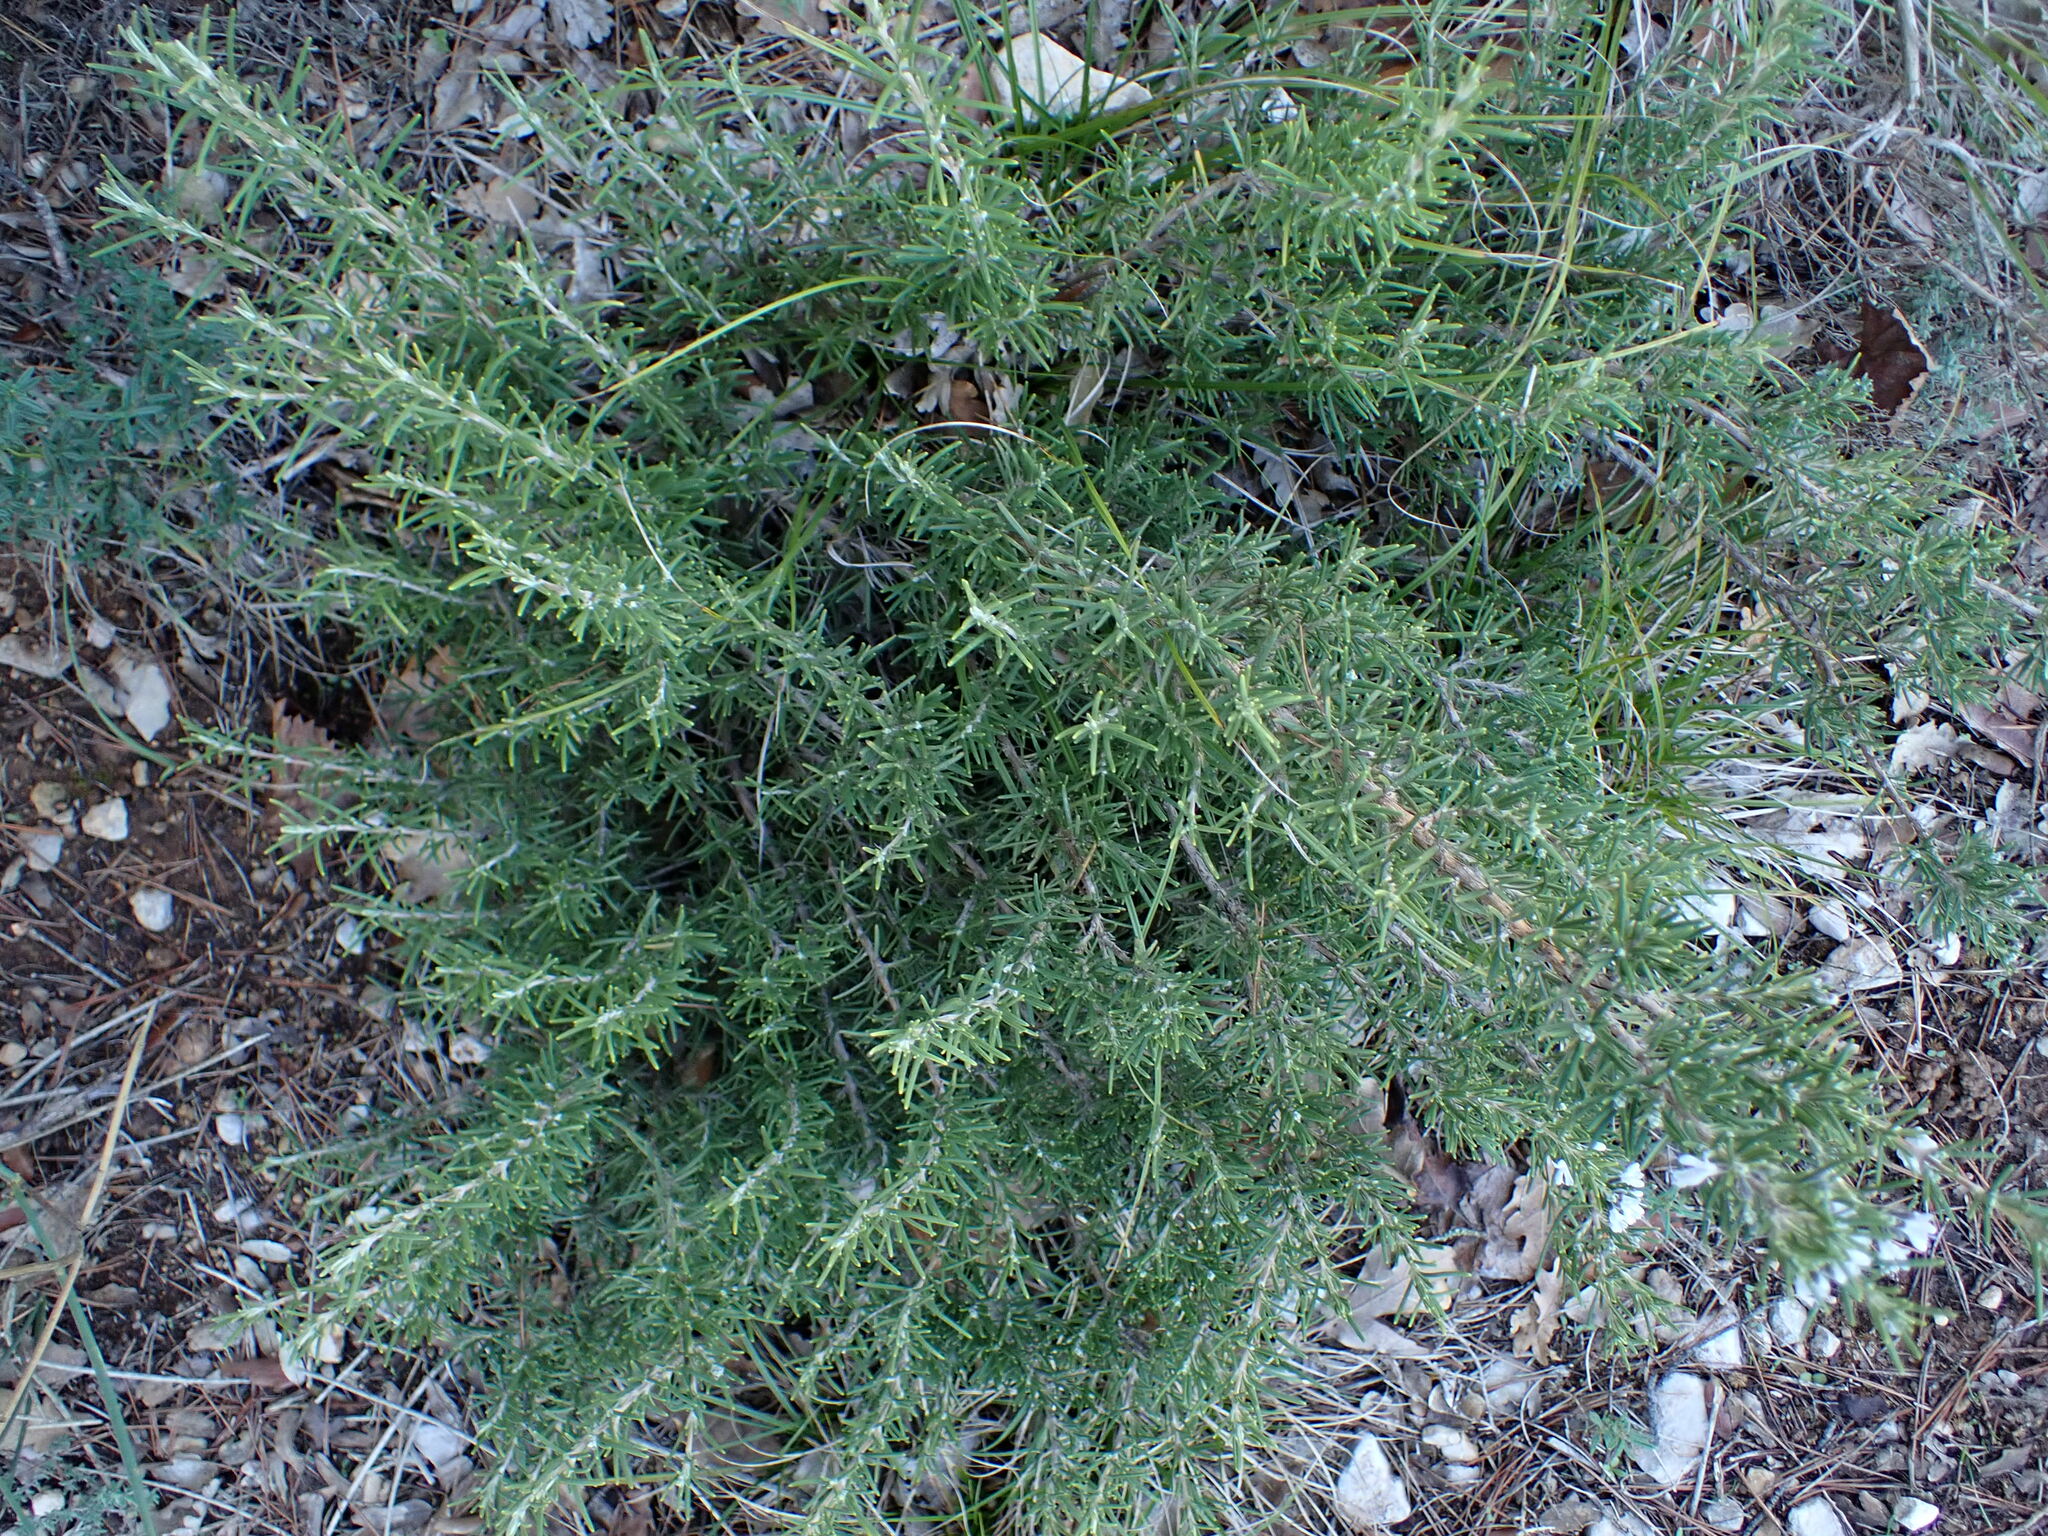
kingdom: Plantae
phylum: Tracheophyta
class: Magnoliopsida
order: Lamiales
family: Lamiaceae
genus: Salvia
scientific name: Salvia rosmarinus
